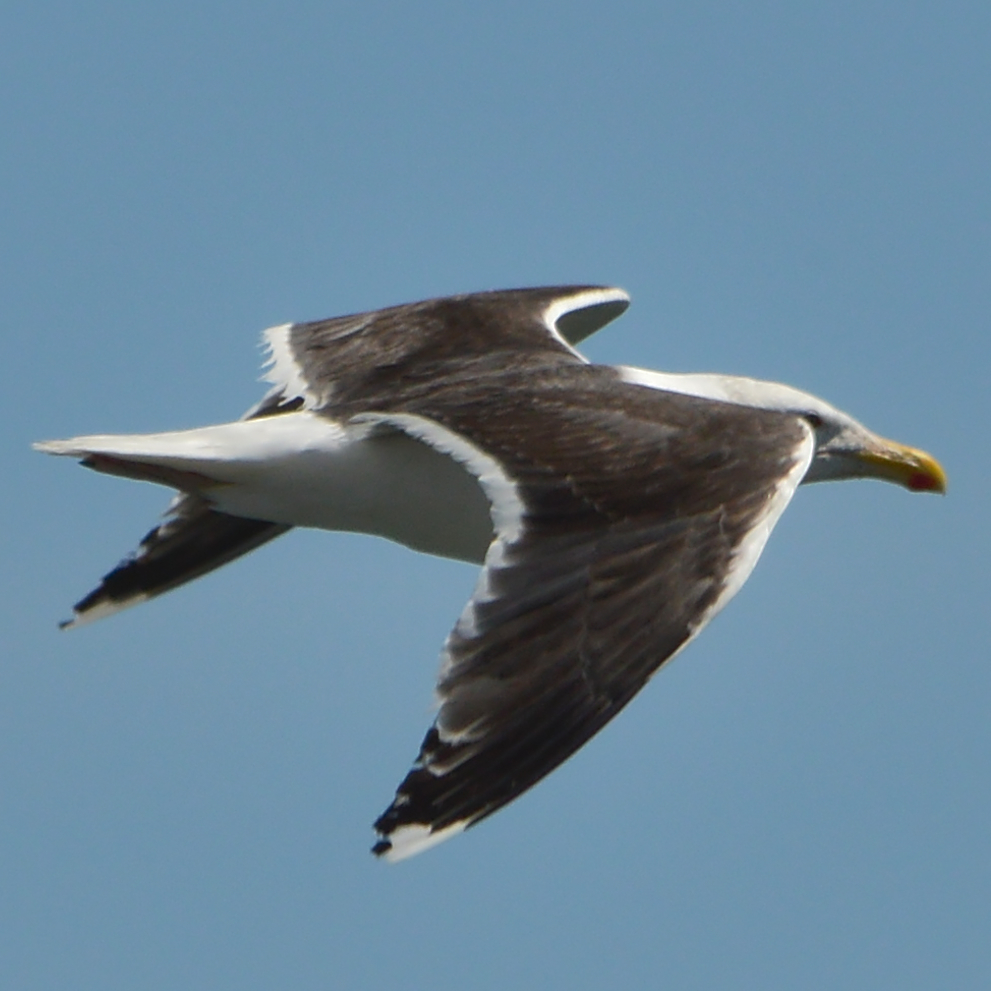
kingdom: Animalia
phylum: Chordata
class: Aves
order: Charadriiformes
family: Laridae
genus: Larus
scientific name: Larus marinus
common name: Great black-backed gull
